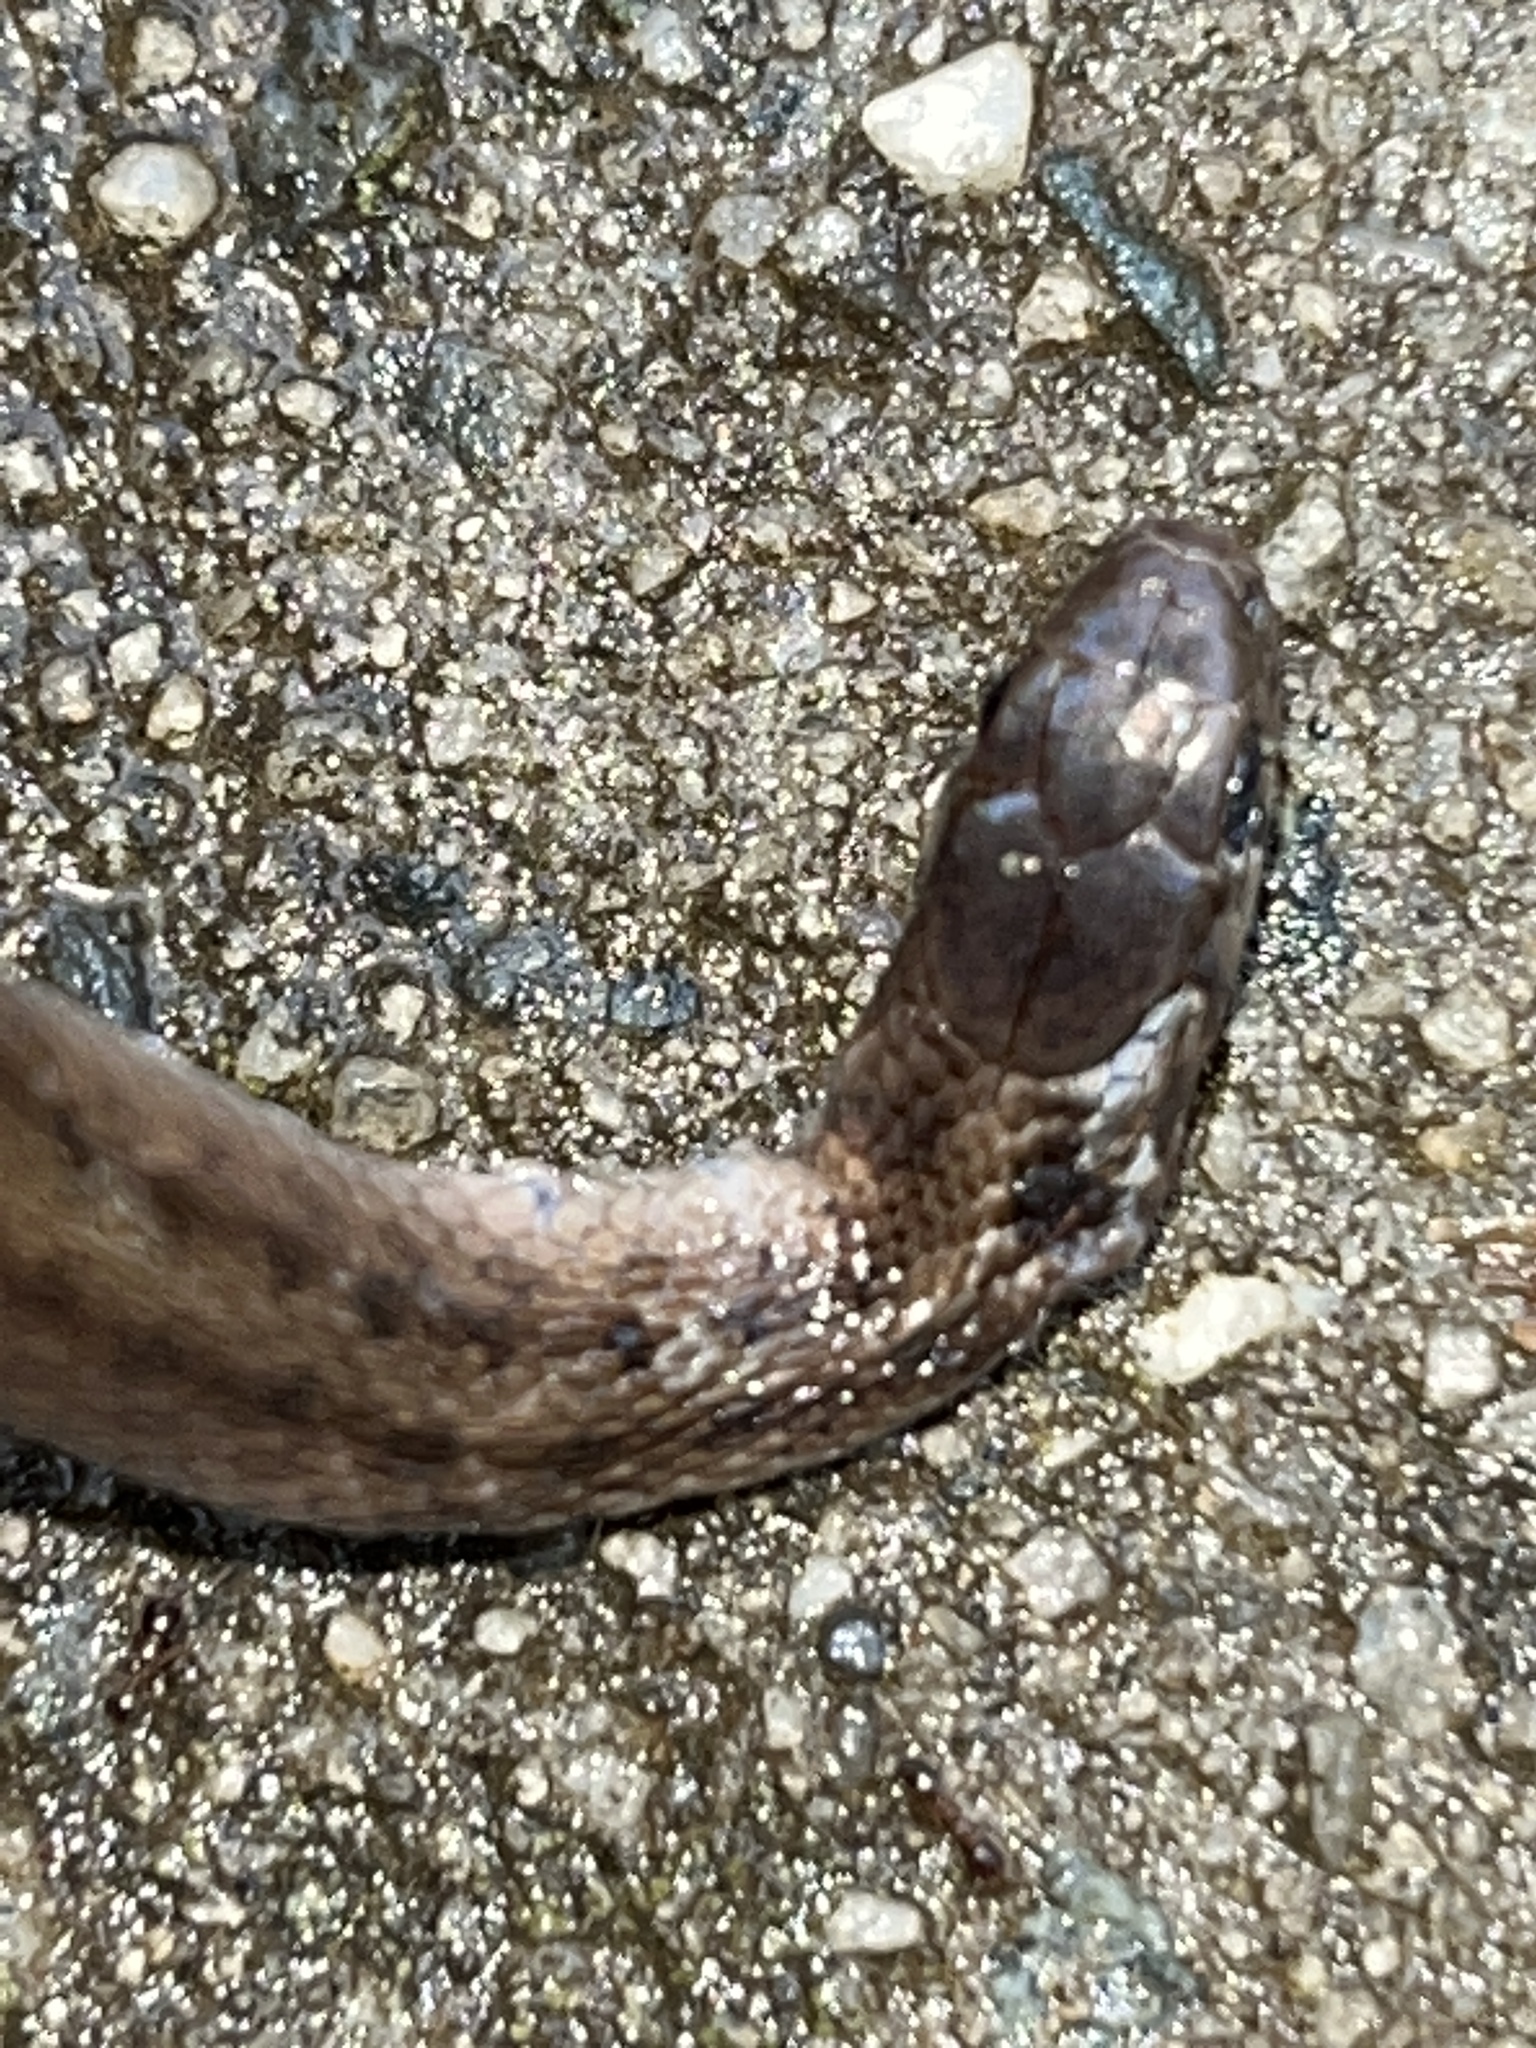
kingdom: Animalia
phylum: Chordata
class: Squamata
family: Colubridae
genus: Storeria
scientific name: Storeria dekayi
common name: (dekay’s) brown snake
